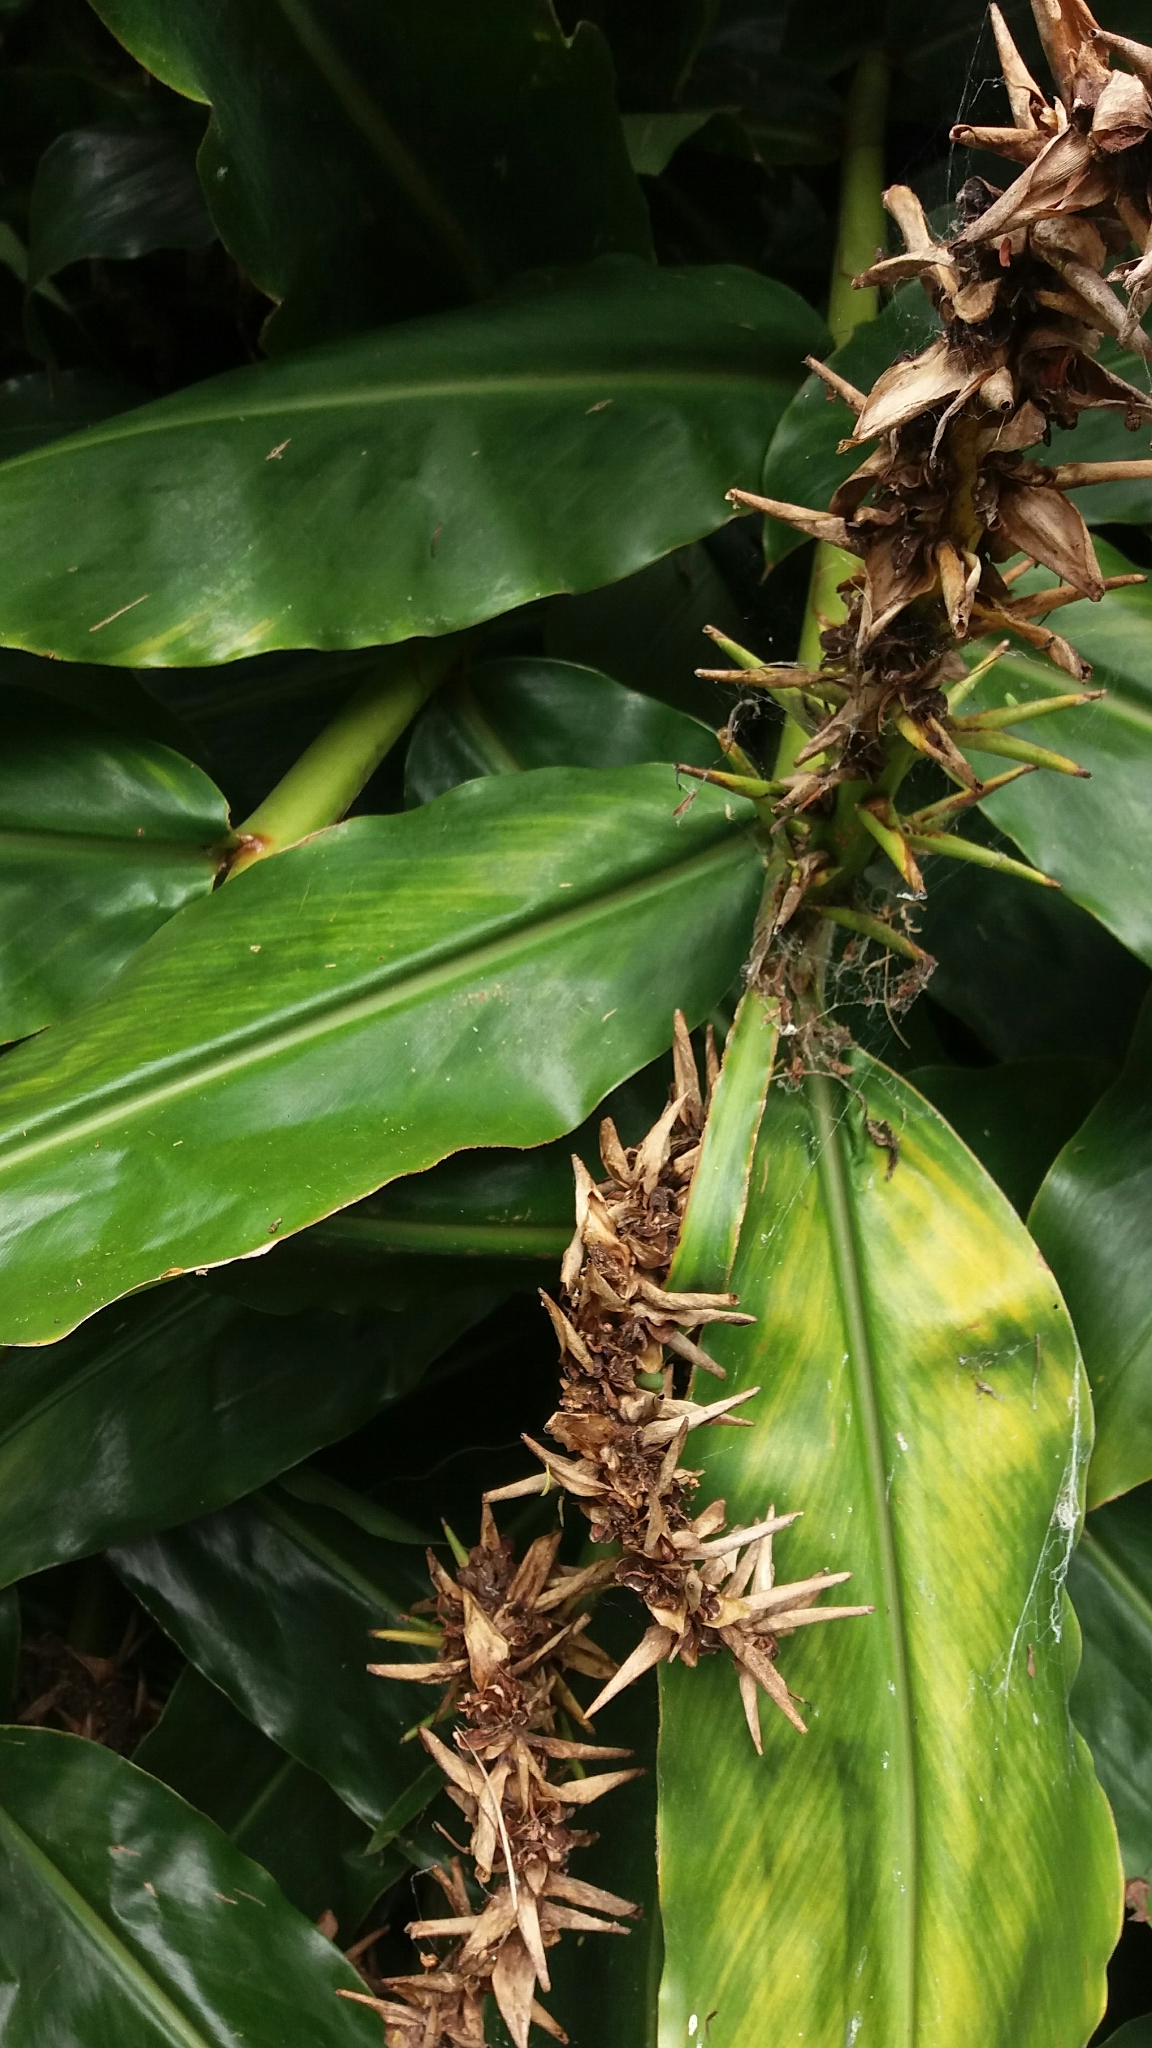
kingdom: Plantae
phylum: Tracheophyta
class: Liliopsida
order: Zingiberales
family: Zingiberaceae
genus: Hedychium
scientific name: Hedychium gardnerianum
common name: Himalayan ginger
